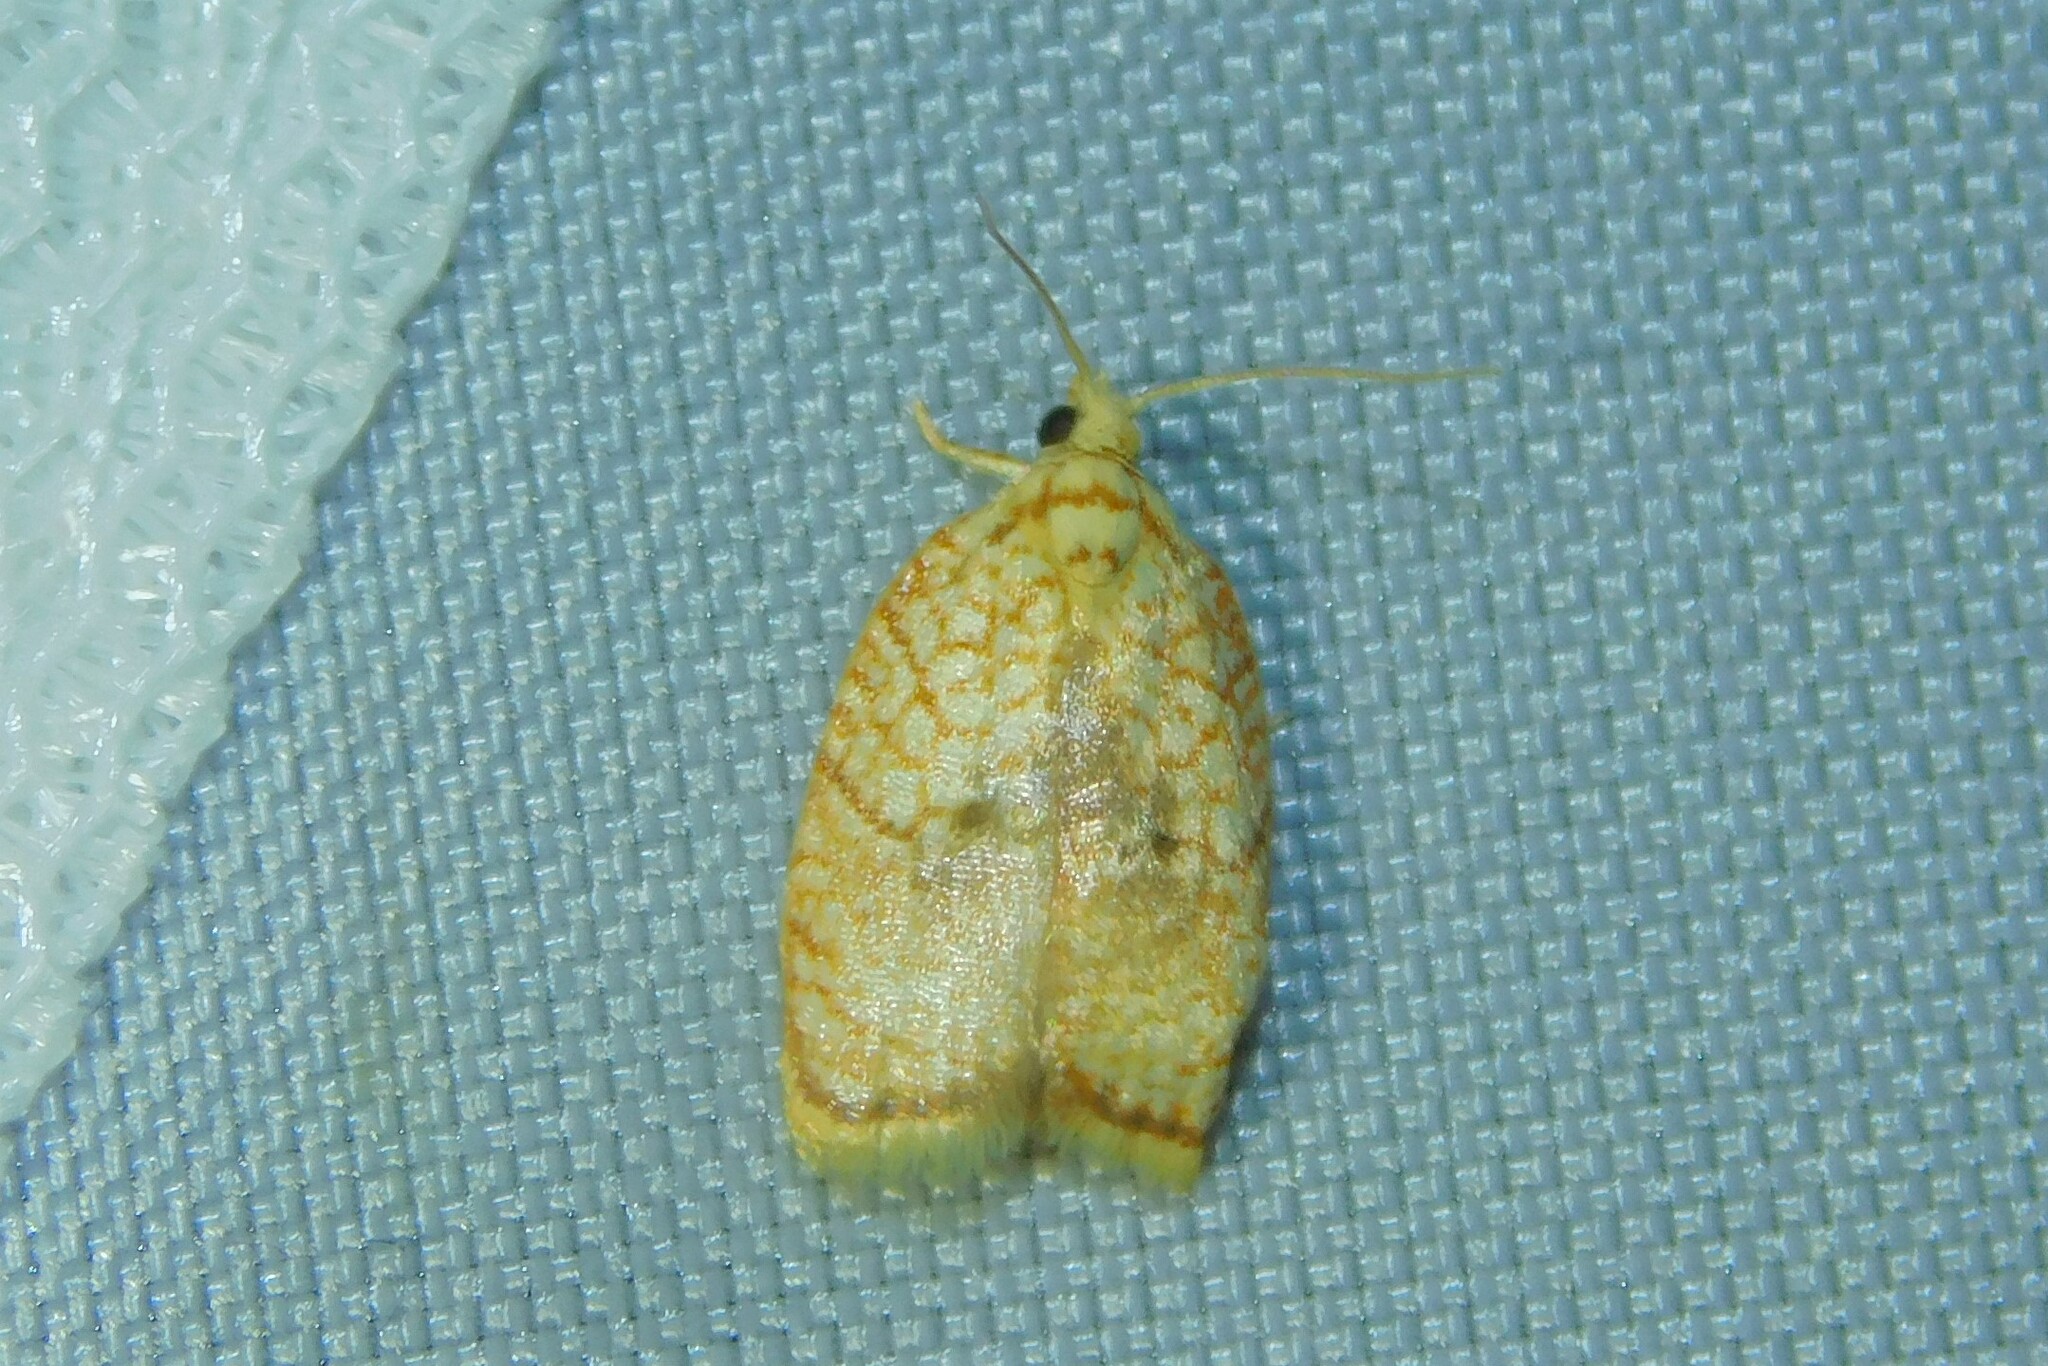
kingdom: Animalia
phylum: Arthropoda
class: Insecta
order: Lepidoptera
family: Tortricidae
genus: Acleris
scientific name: Acleris forsskaleana
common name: Maple button
